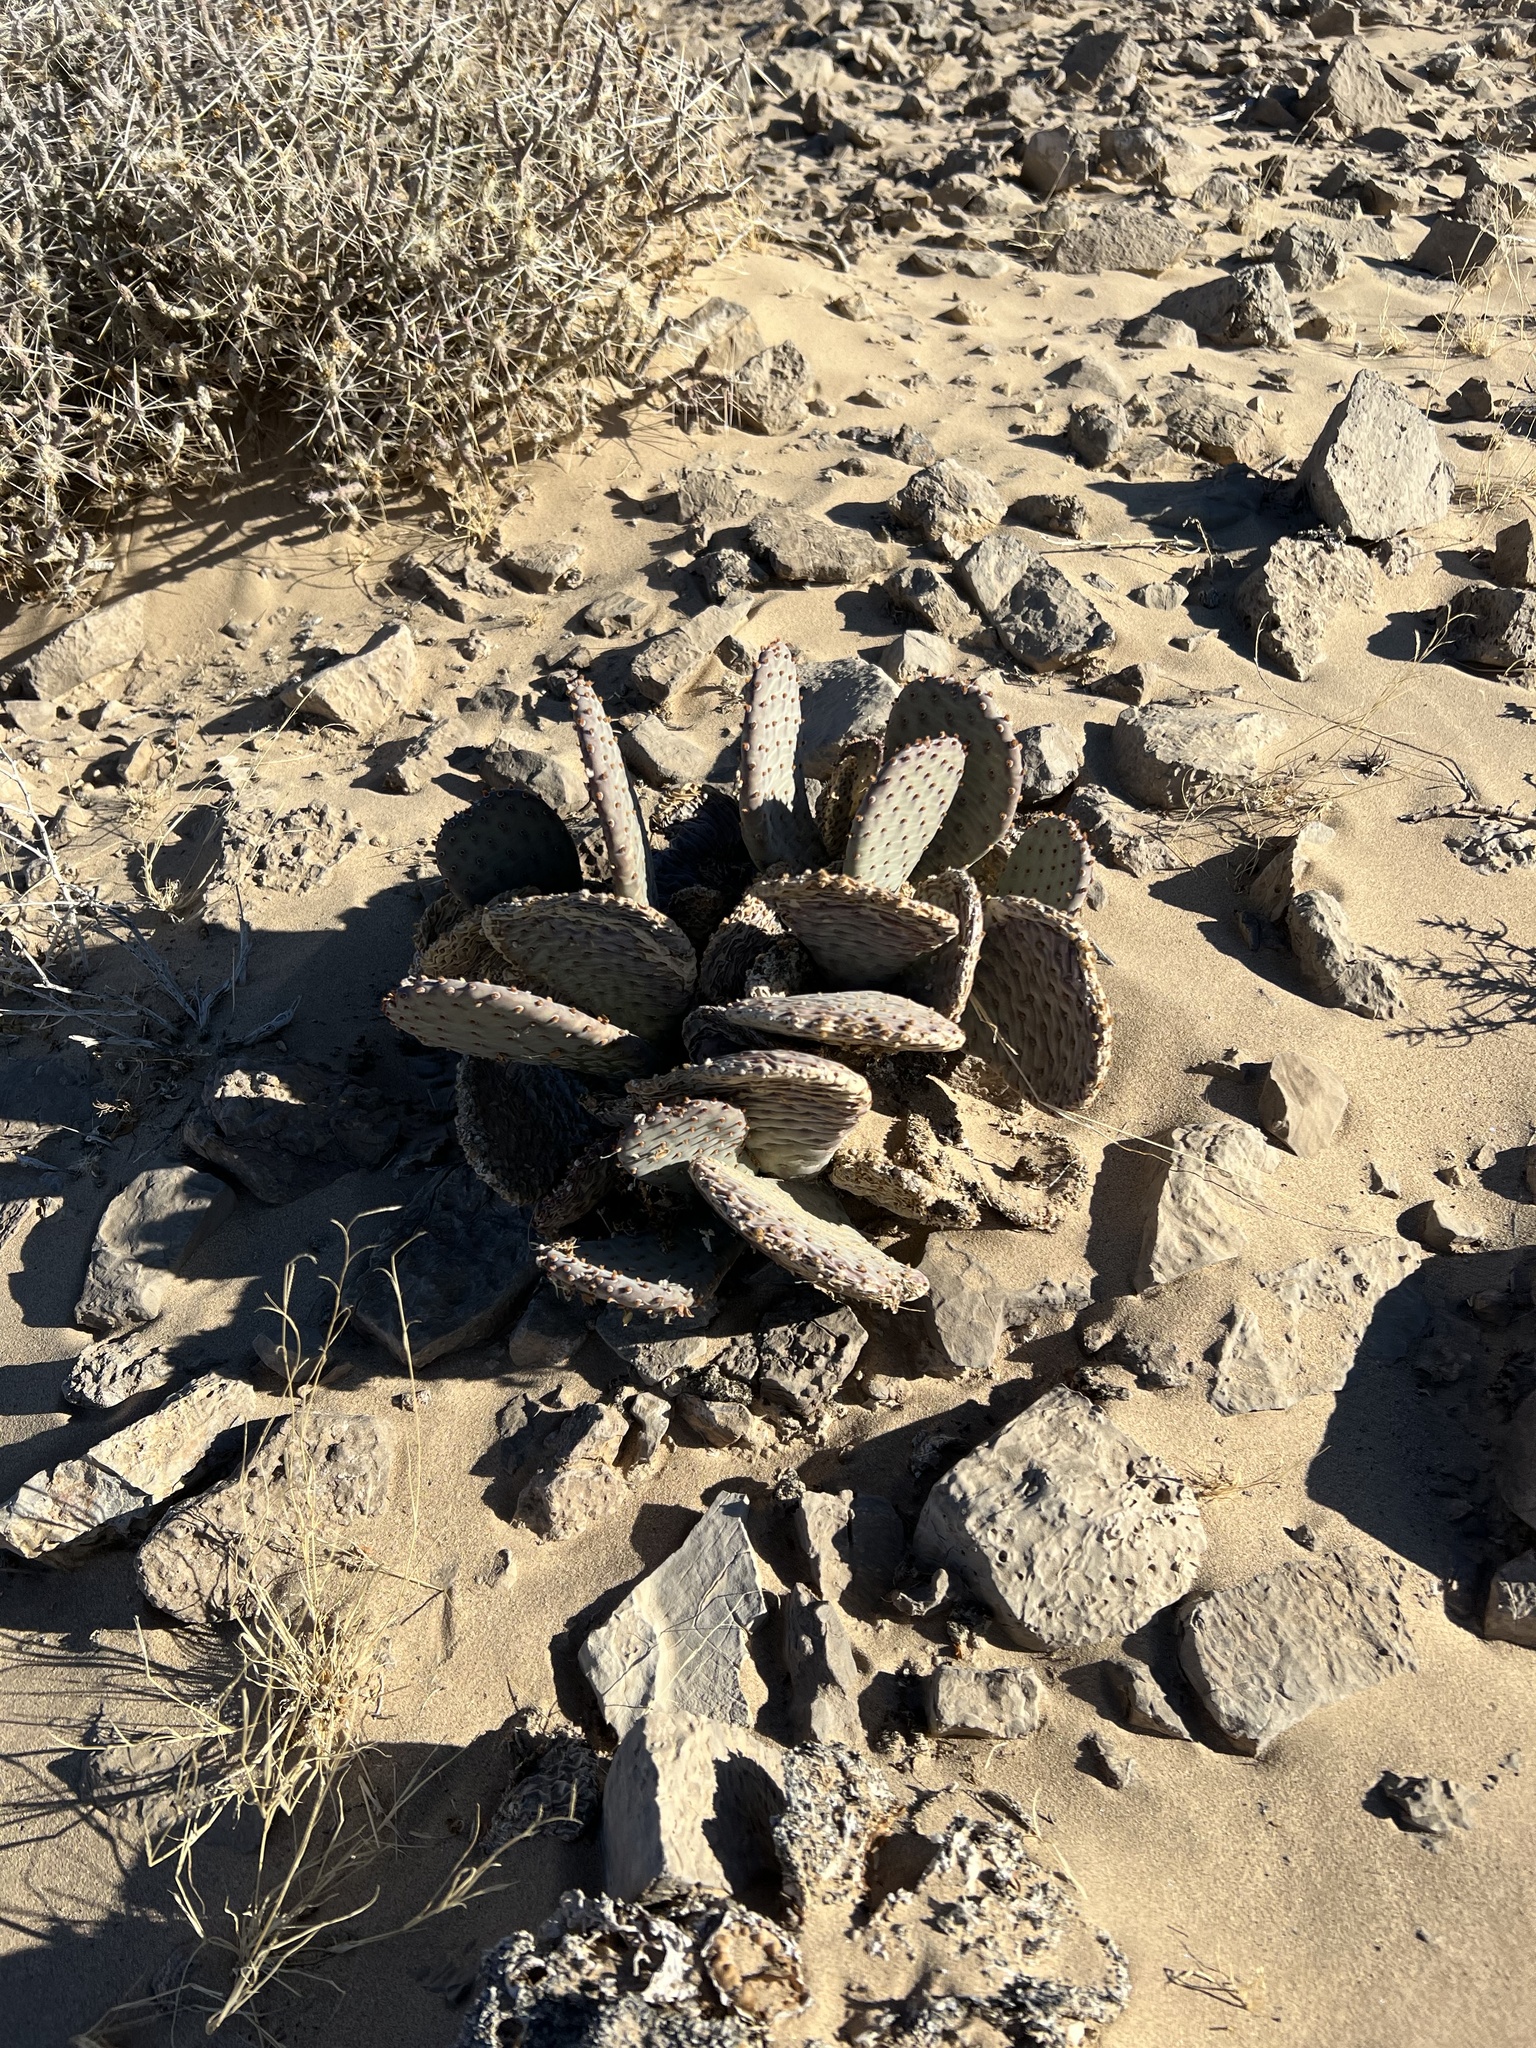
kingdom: Plantae
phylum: Tracheophyta
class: Magnoliopsida
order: Caryophyllales
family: Cactaceae
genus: Opuntia
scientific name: Opuntia basilaris
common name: Beavertail prickly-pear
